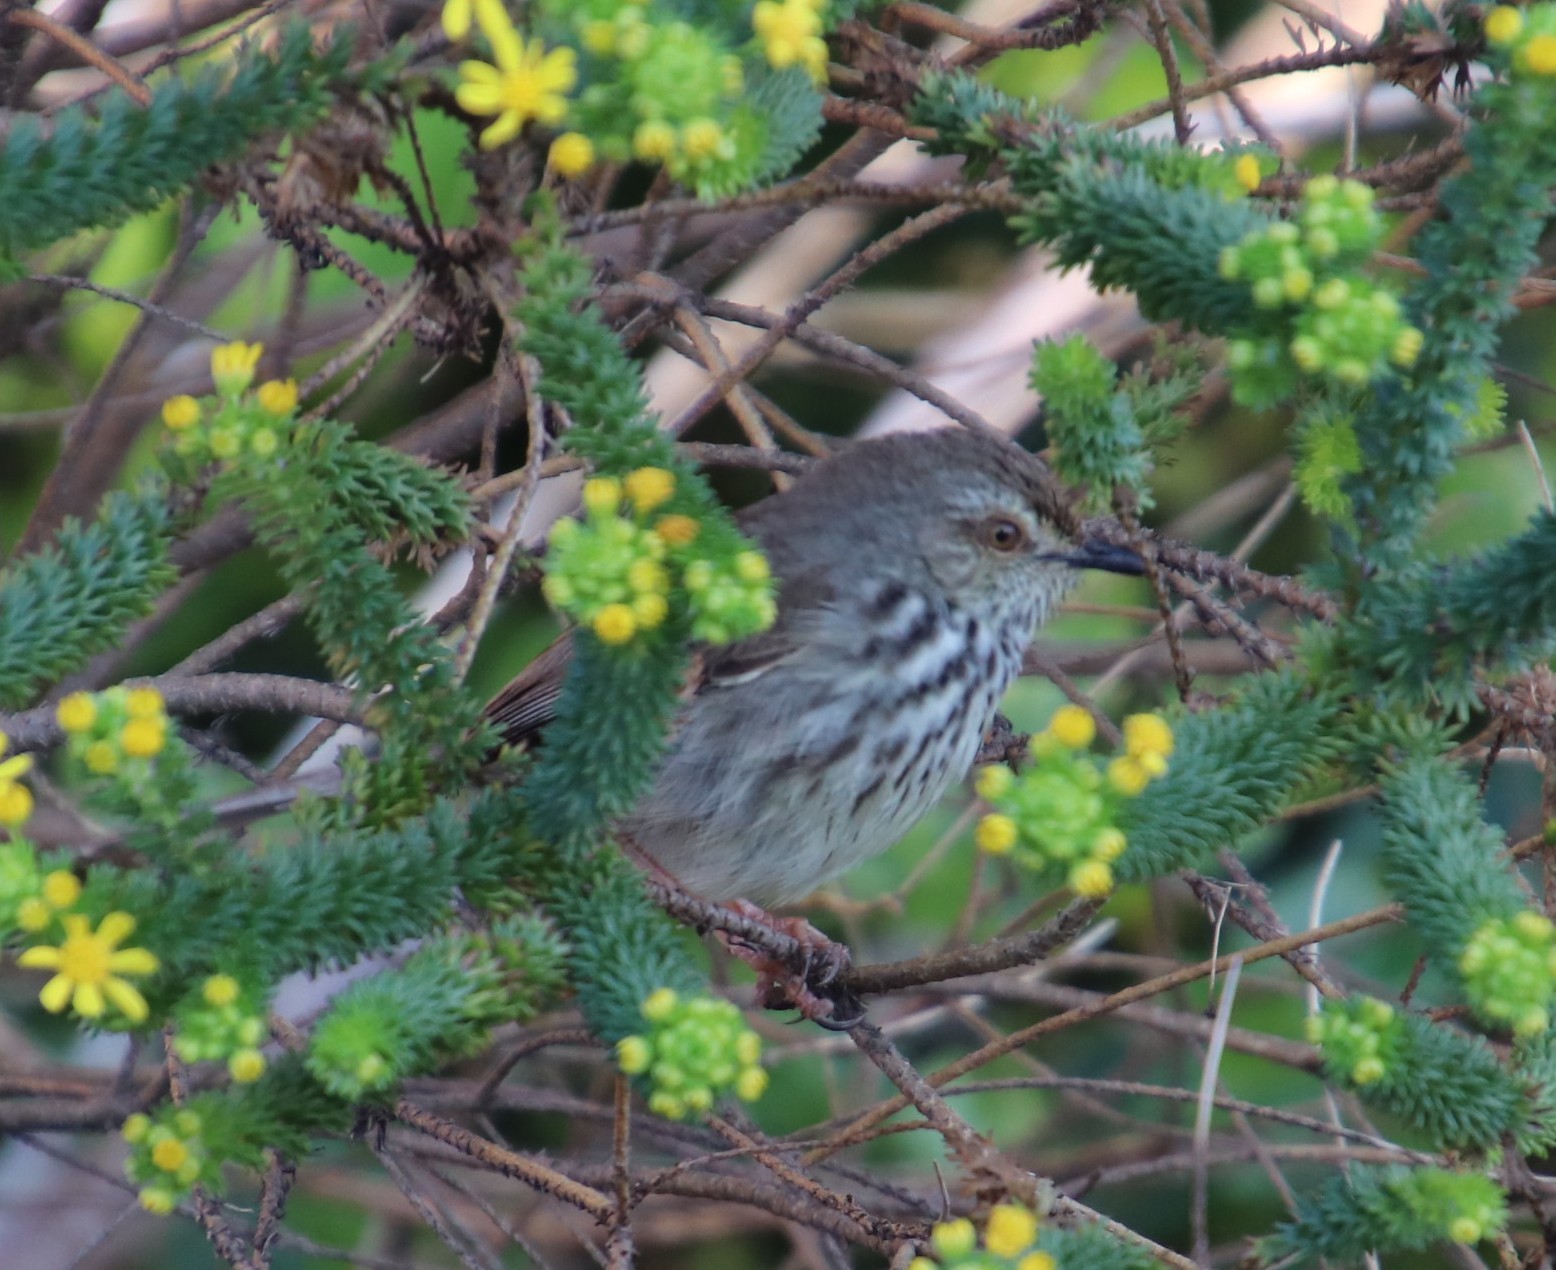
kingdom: Animalia
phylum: Chordata
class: Aves
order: Passeriformes
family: Cisticolidae
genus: Prinia
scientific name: Prinia maculosa
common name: Karoo prinia
